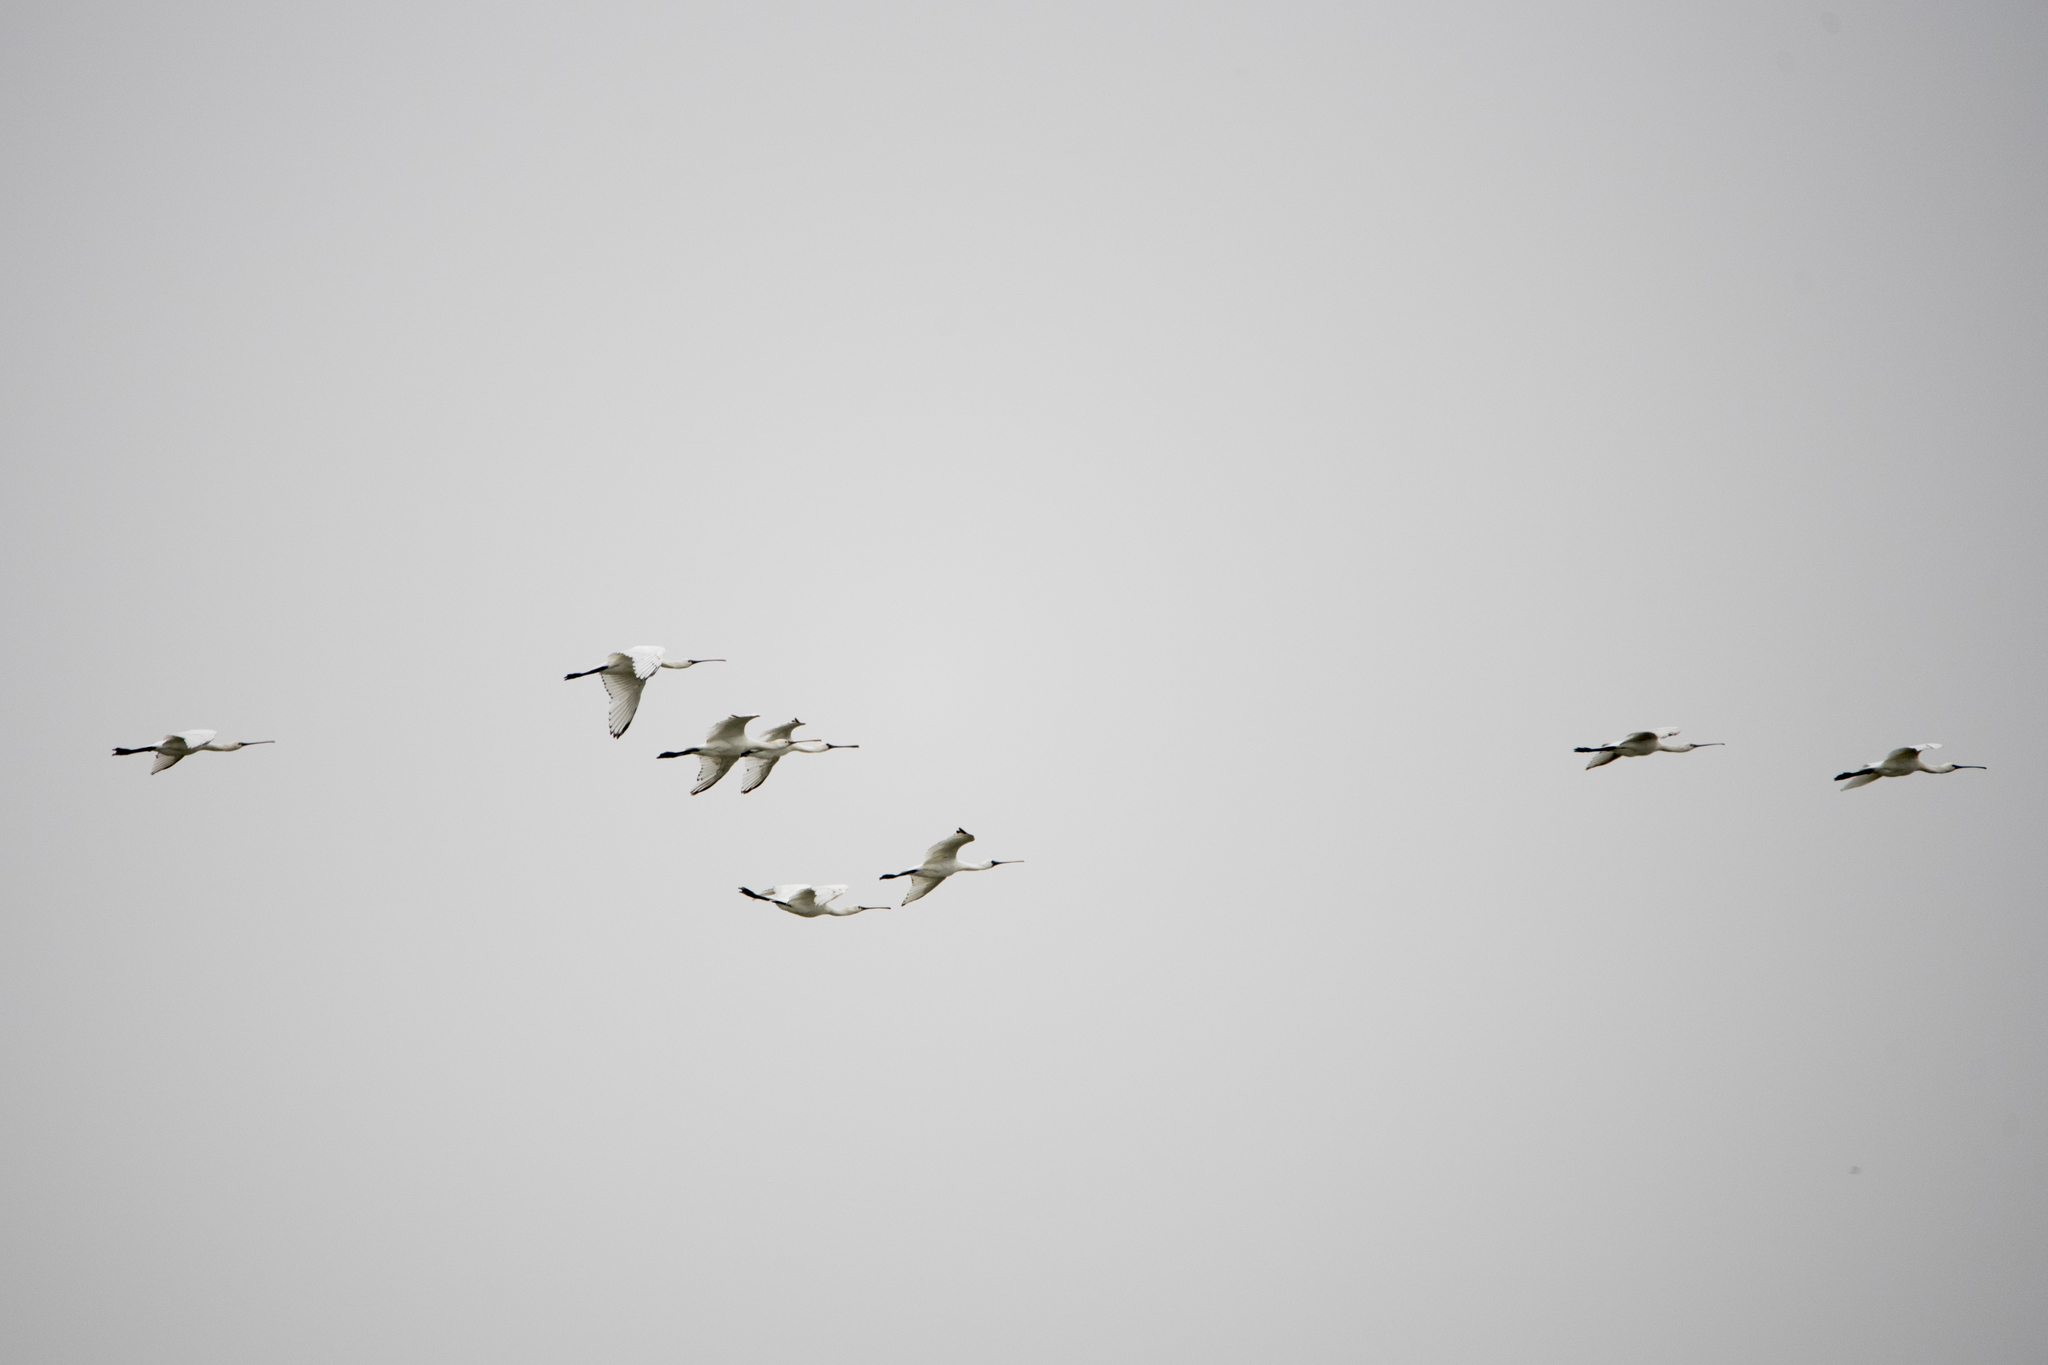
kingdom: Animalia
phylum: Chordata
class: Aves
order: Pelecaniformes
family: Threskiornithidae
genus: Platalea
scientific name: Platalea minor
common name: Black-faced spoonbill
